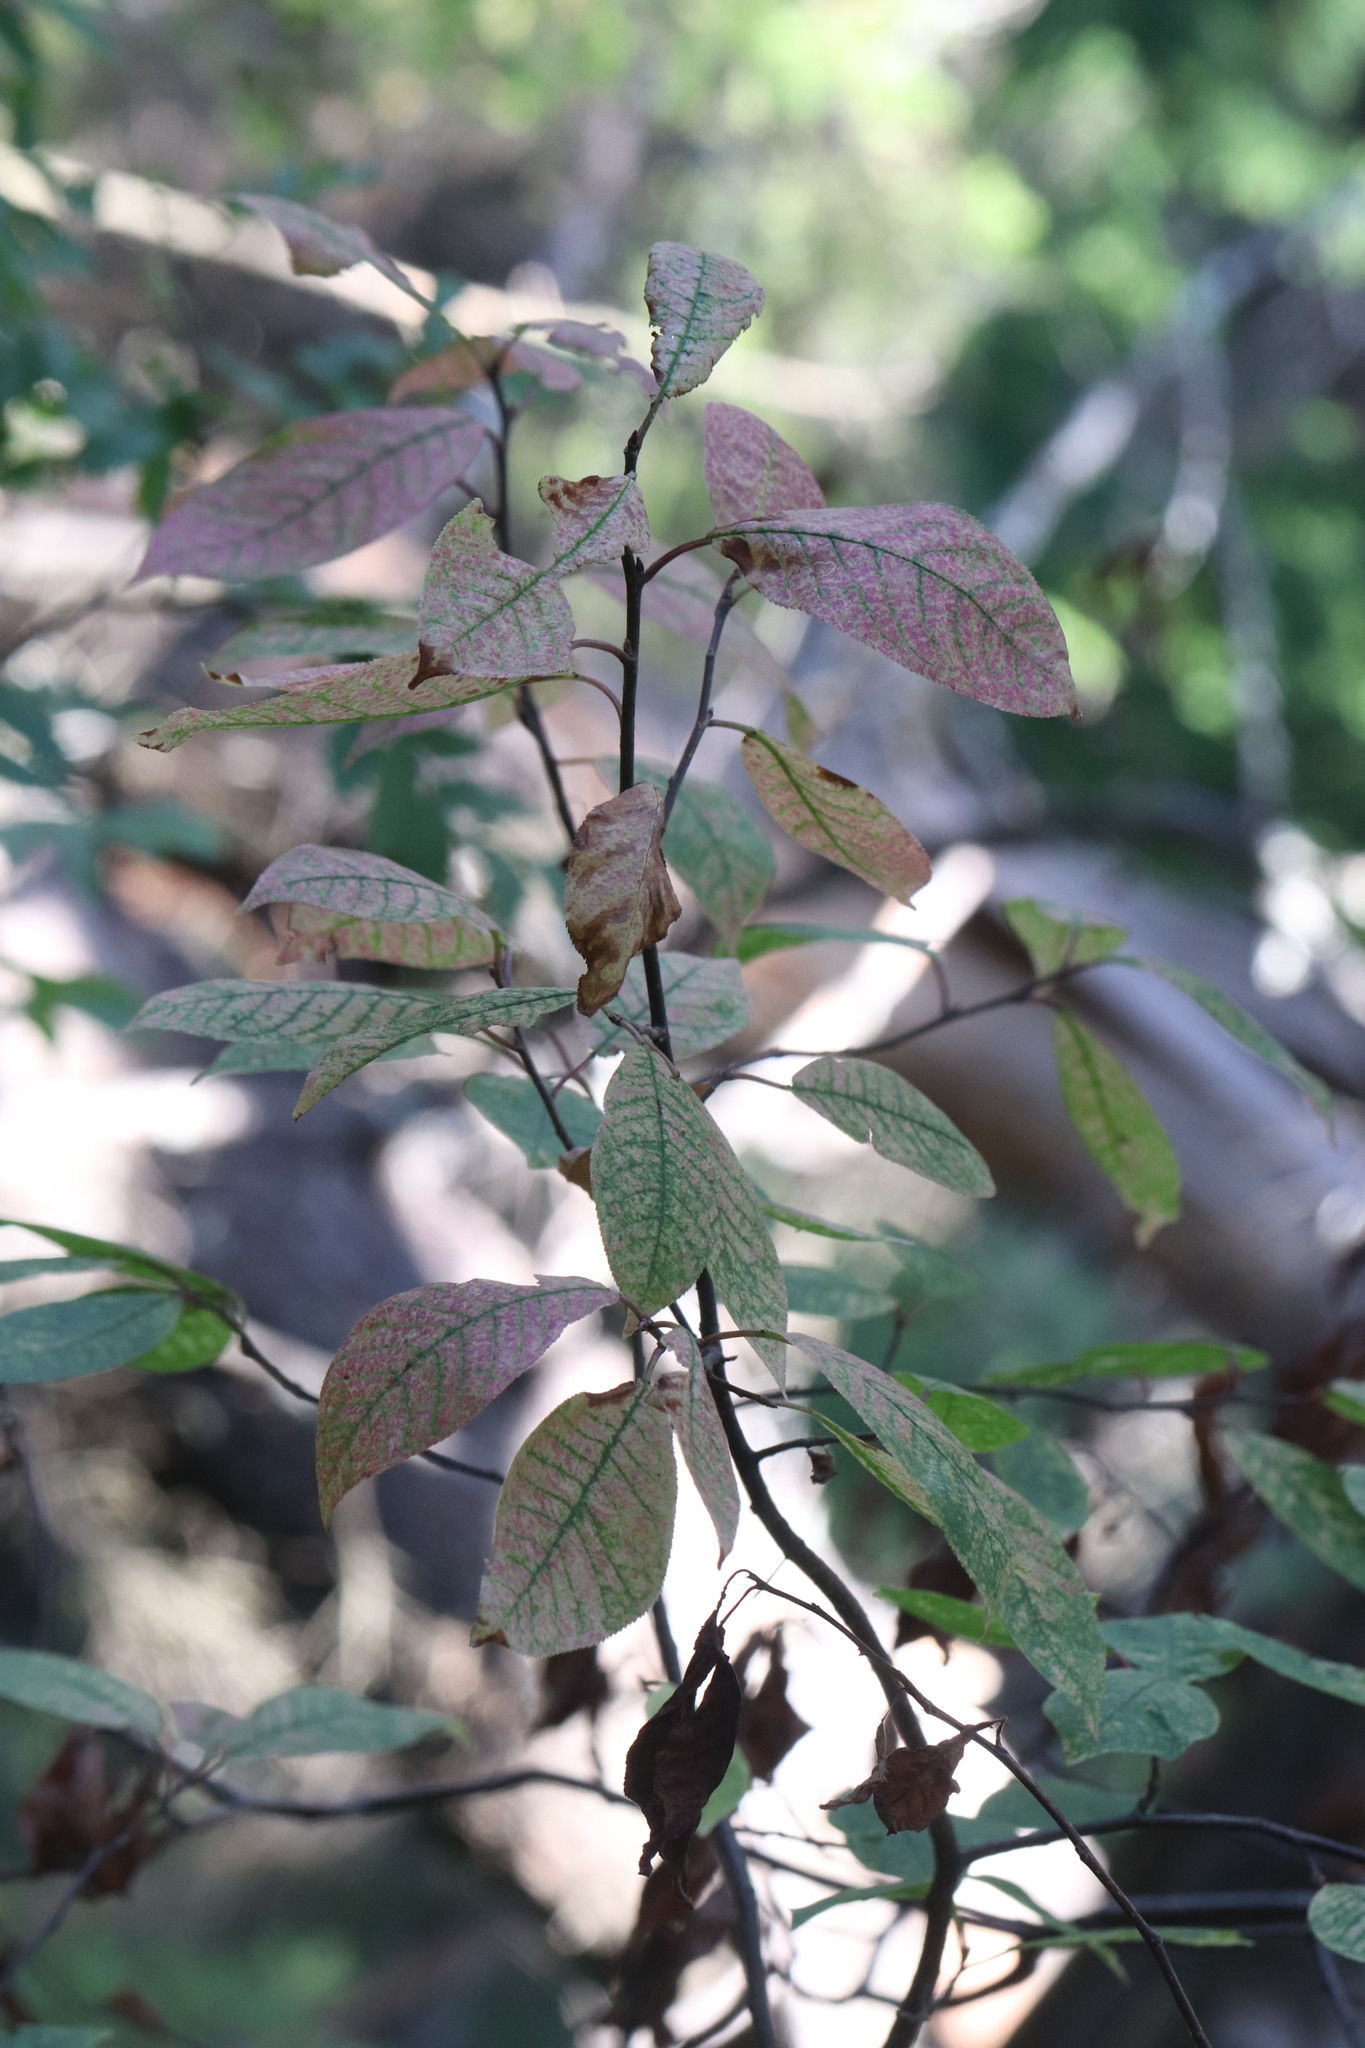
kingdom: Plantae
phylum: Tracheophyta
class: Magnoliopsida
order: Rosales
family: Rosaceae
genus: Prunus
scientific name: Prunus padus
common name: Bird cherry
